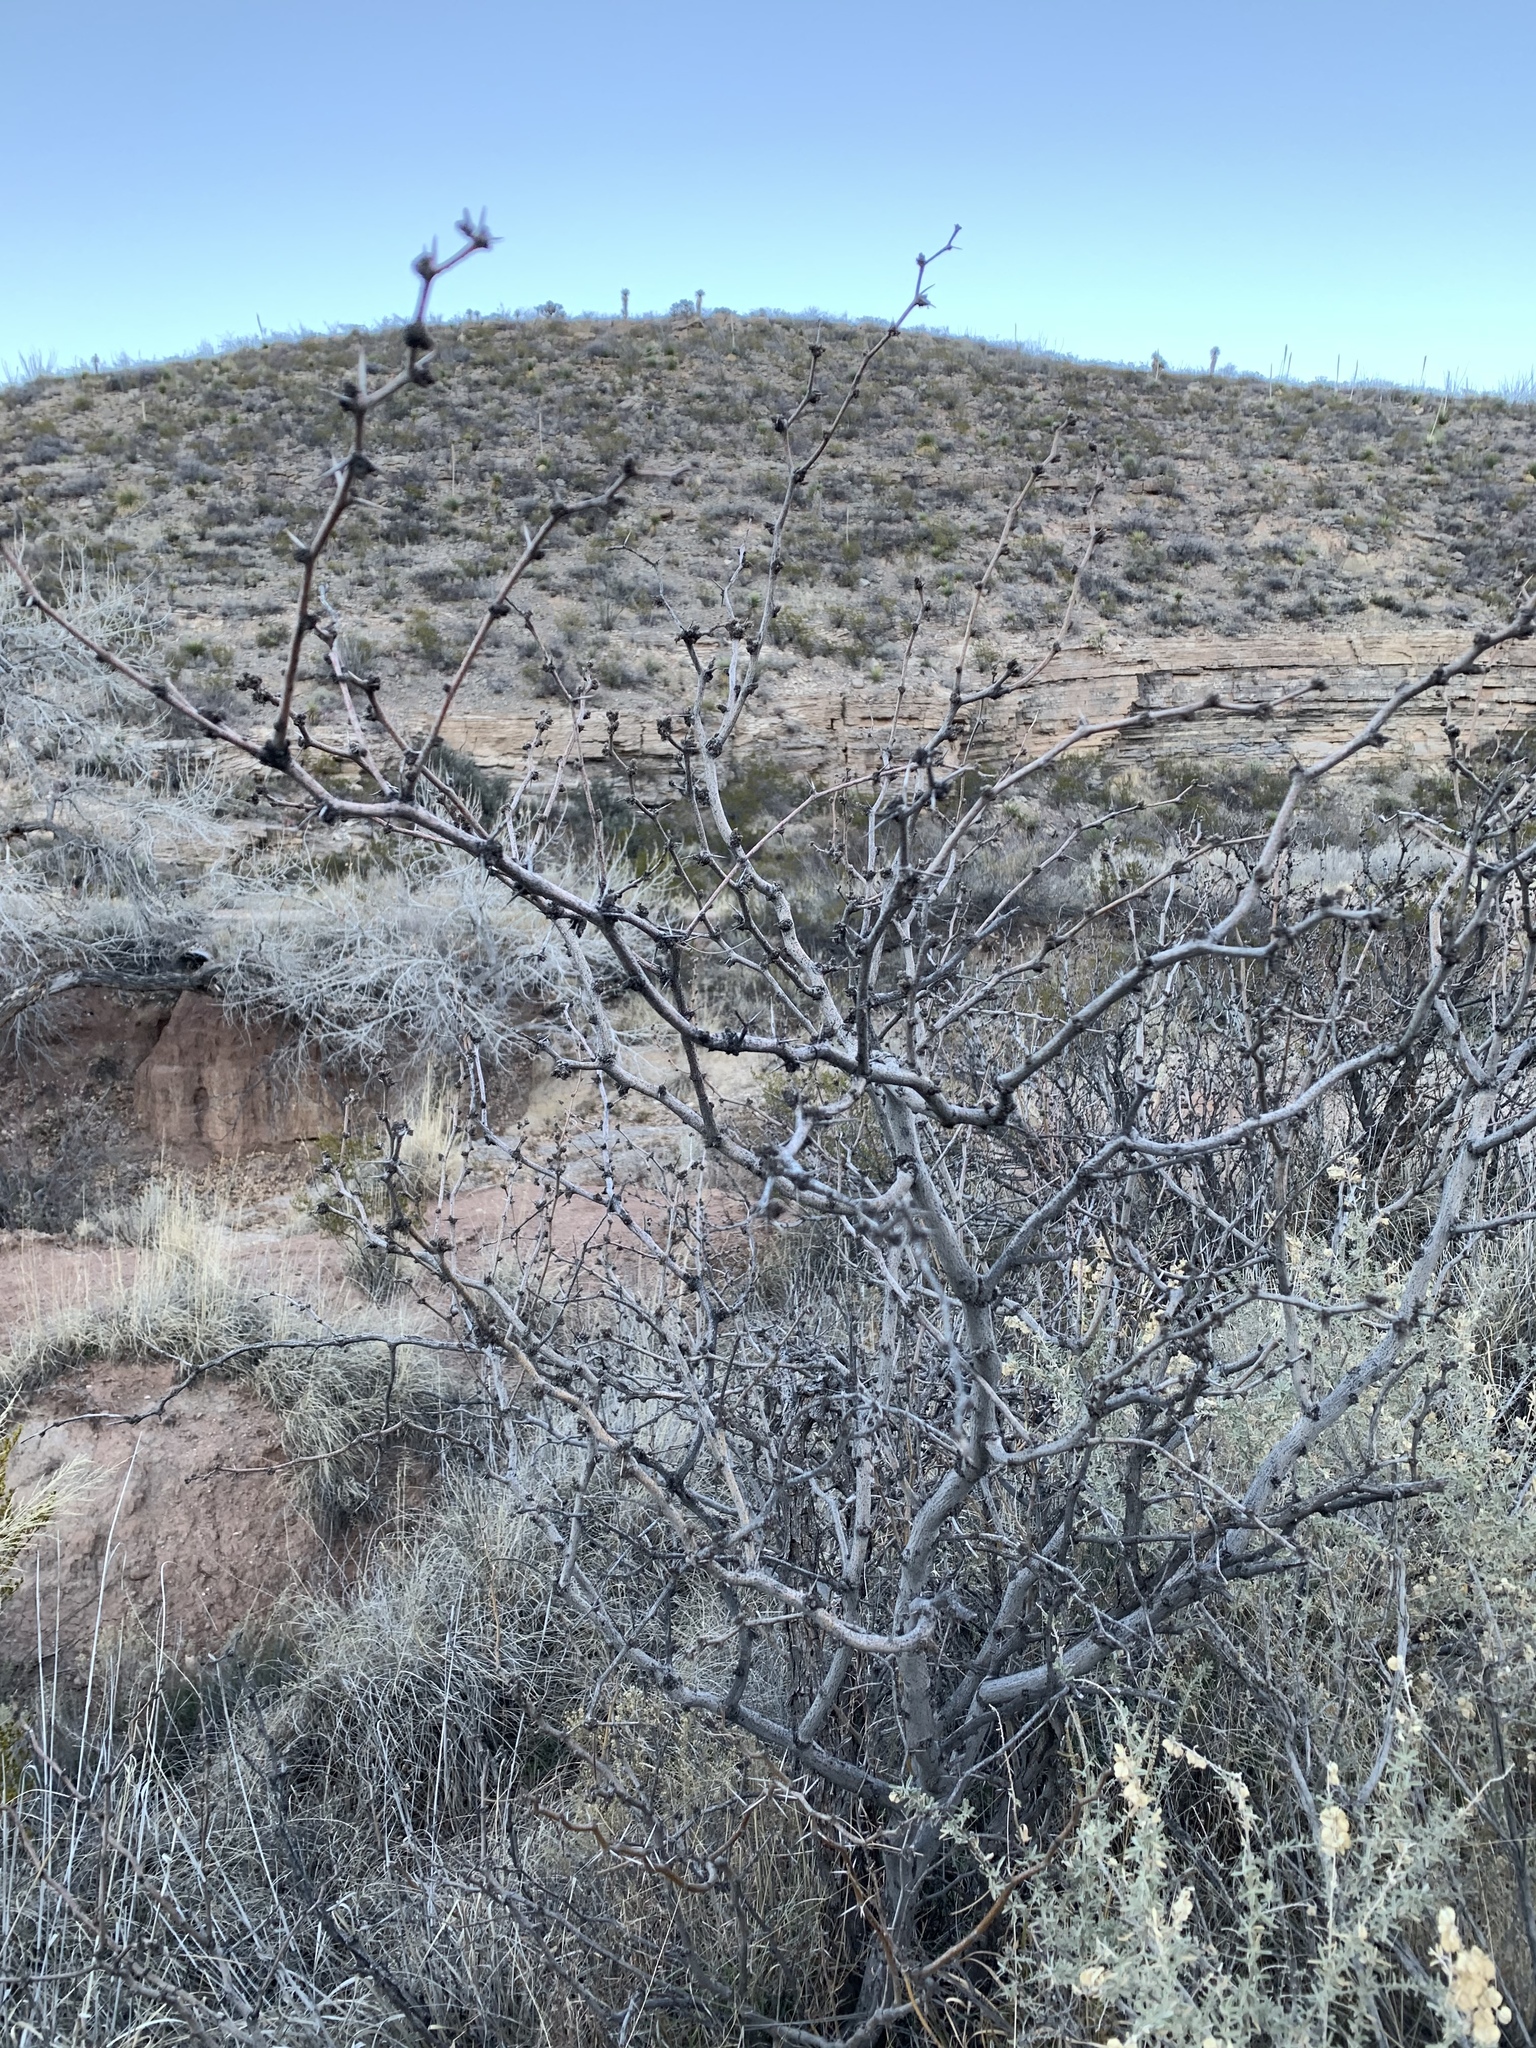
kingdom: Plantae
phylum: Tracheophyta
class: Magnoliopsida
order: Fabales
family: Fabaceae
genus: Prosopis
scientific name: Prosopis glandulosa
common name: Honey mesquite
